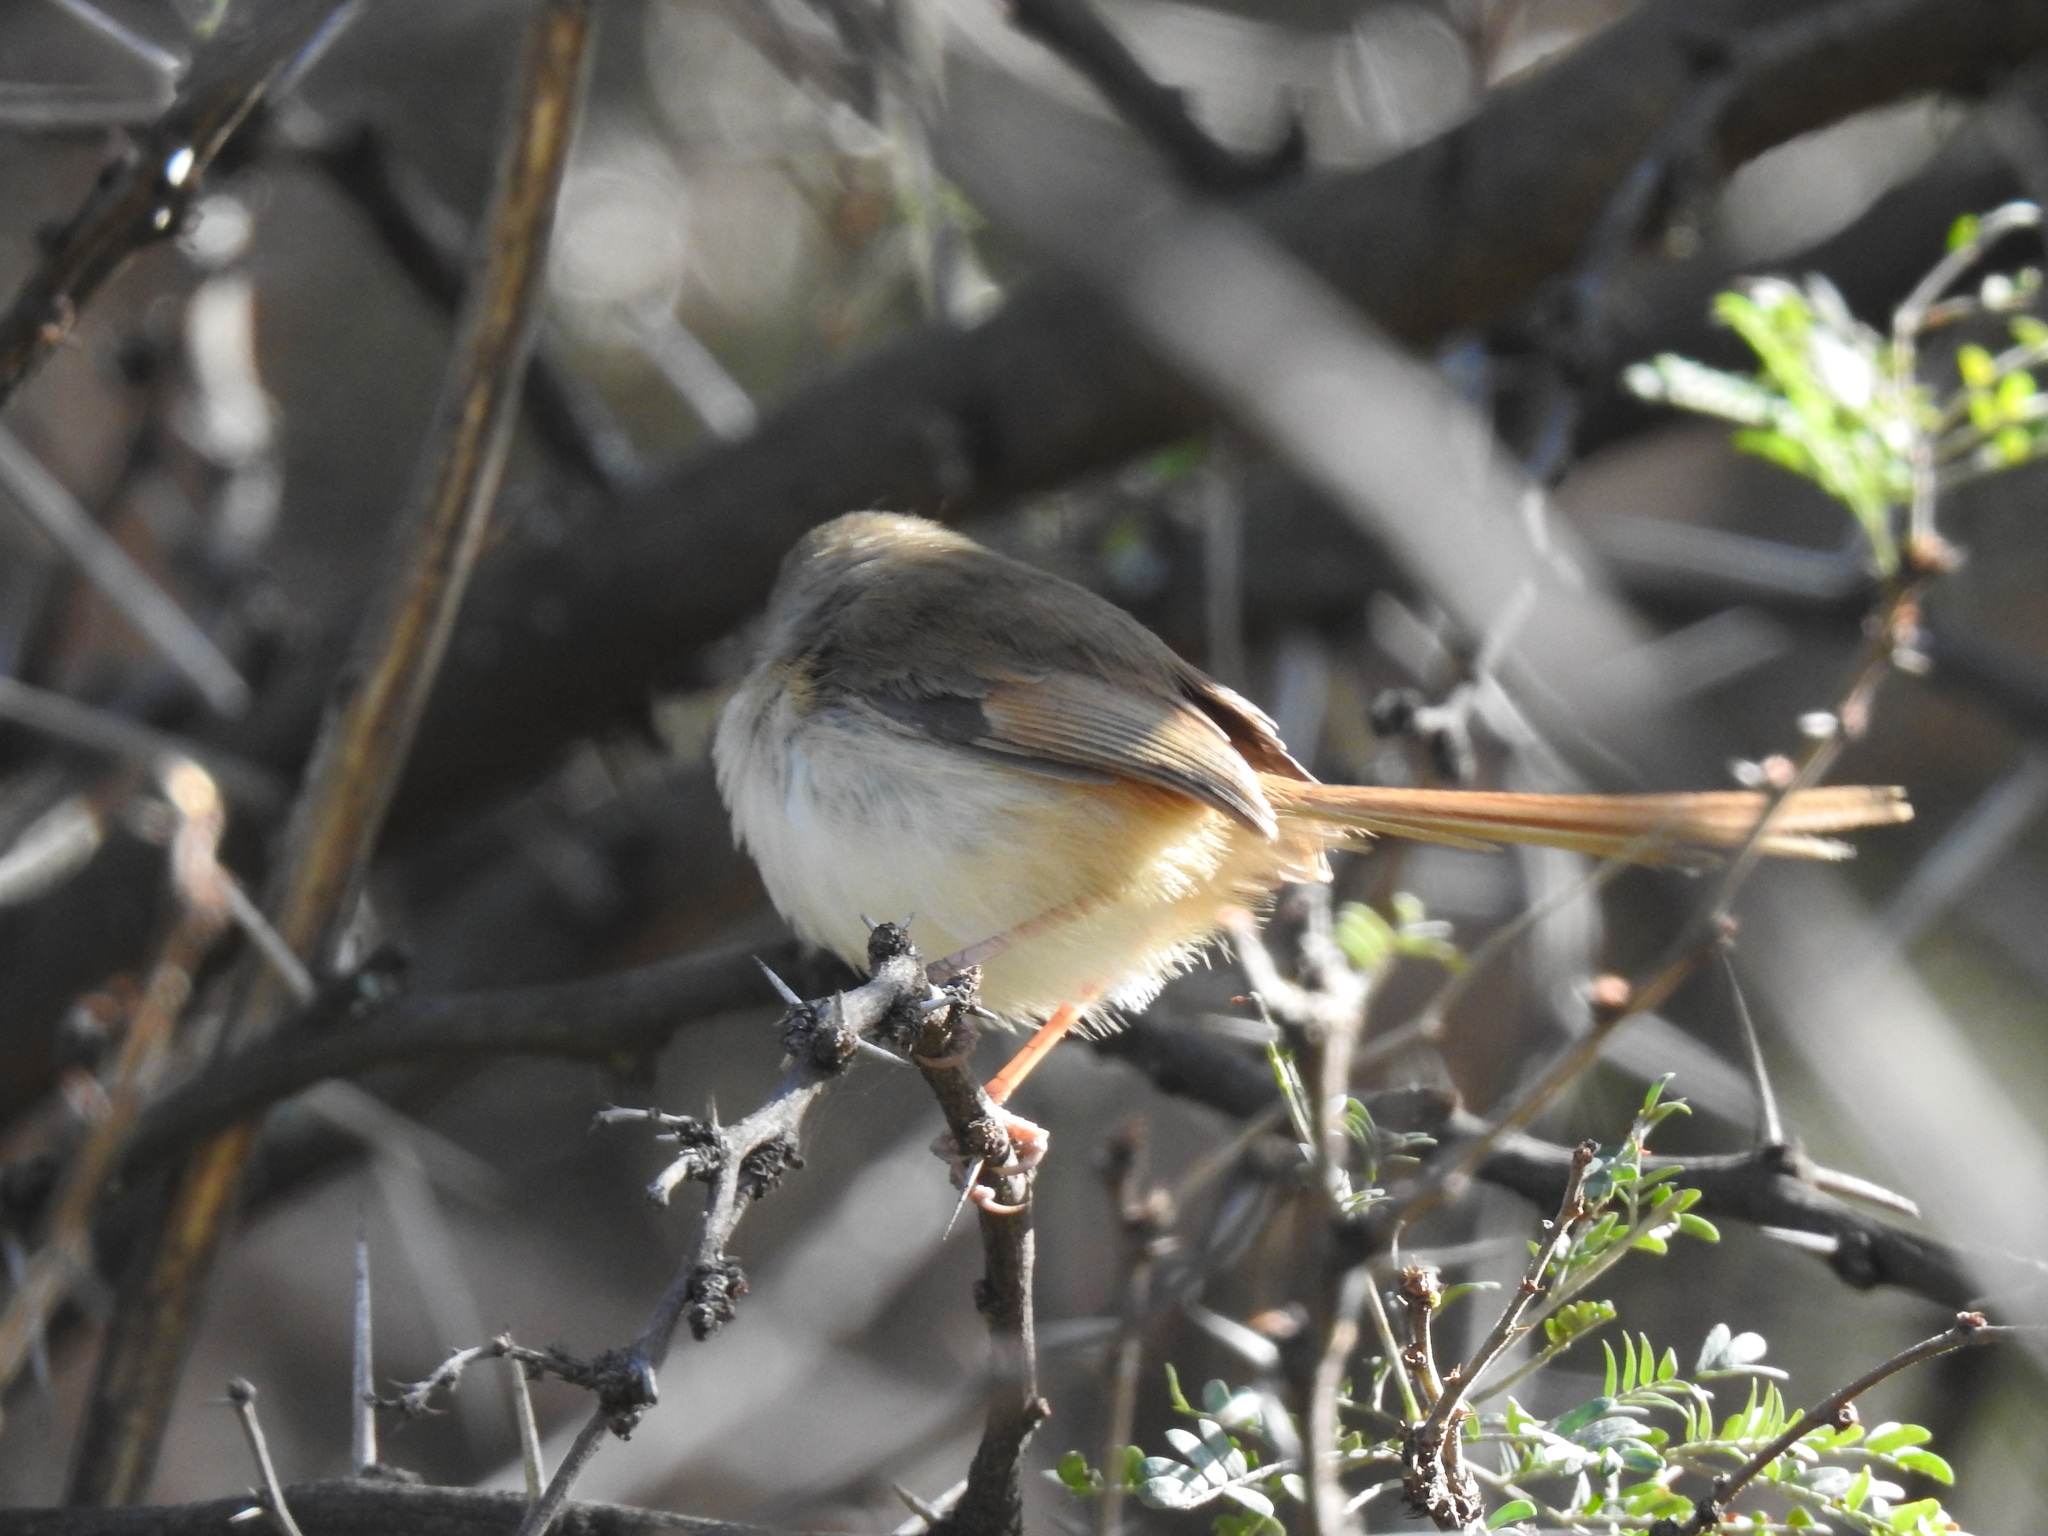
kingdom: Animalia
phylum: Chordata
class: Aves
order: Passeriformes
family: Cisticolidae
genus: Prinia
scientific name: Prinia subflava
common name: Tawny-flanked prinia
